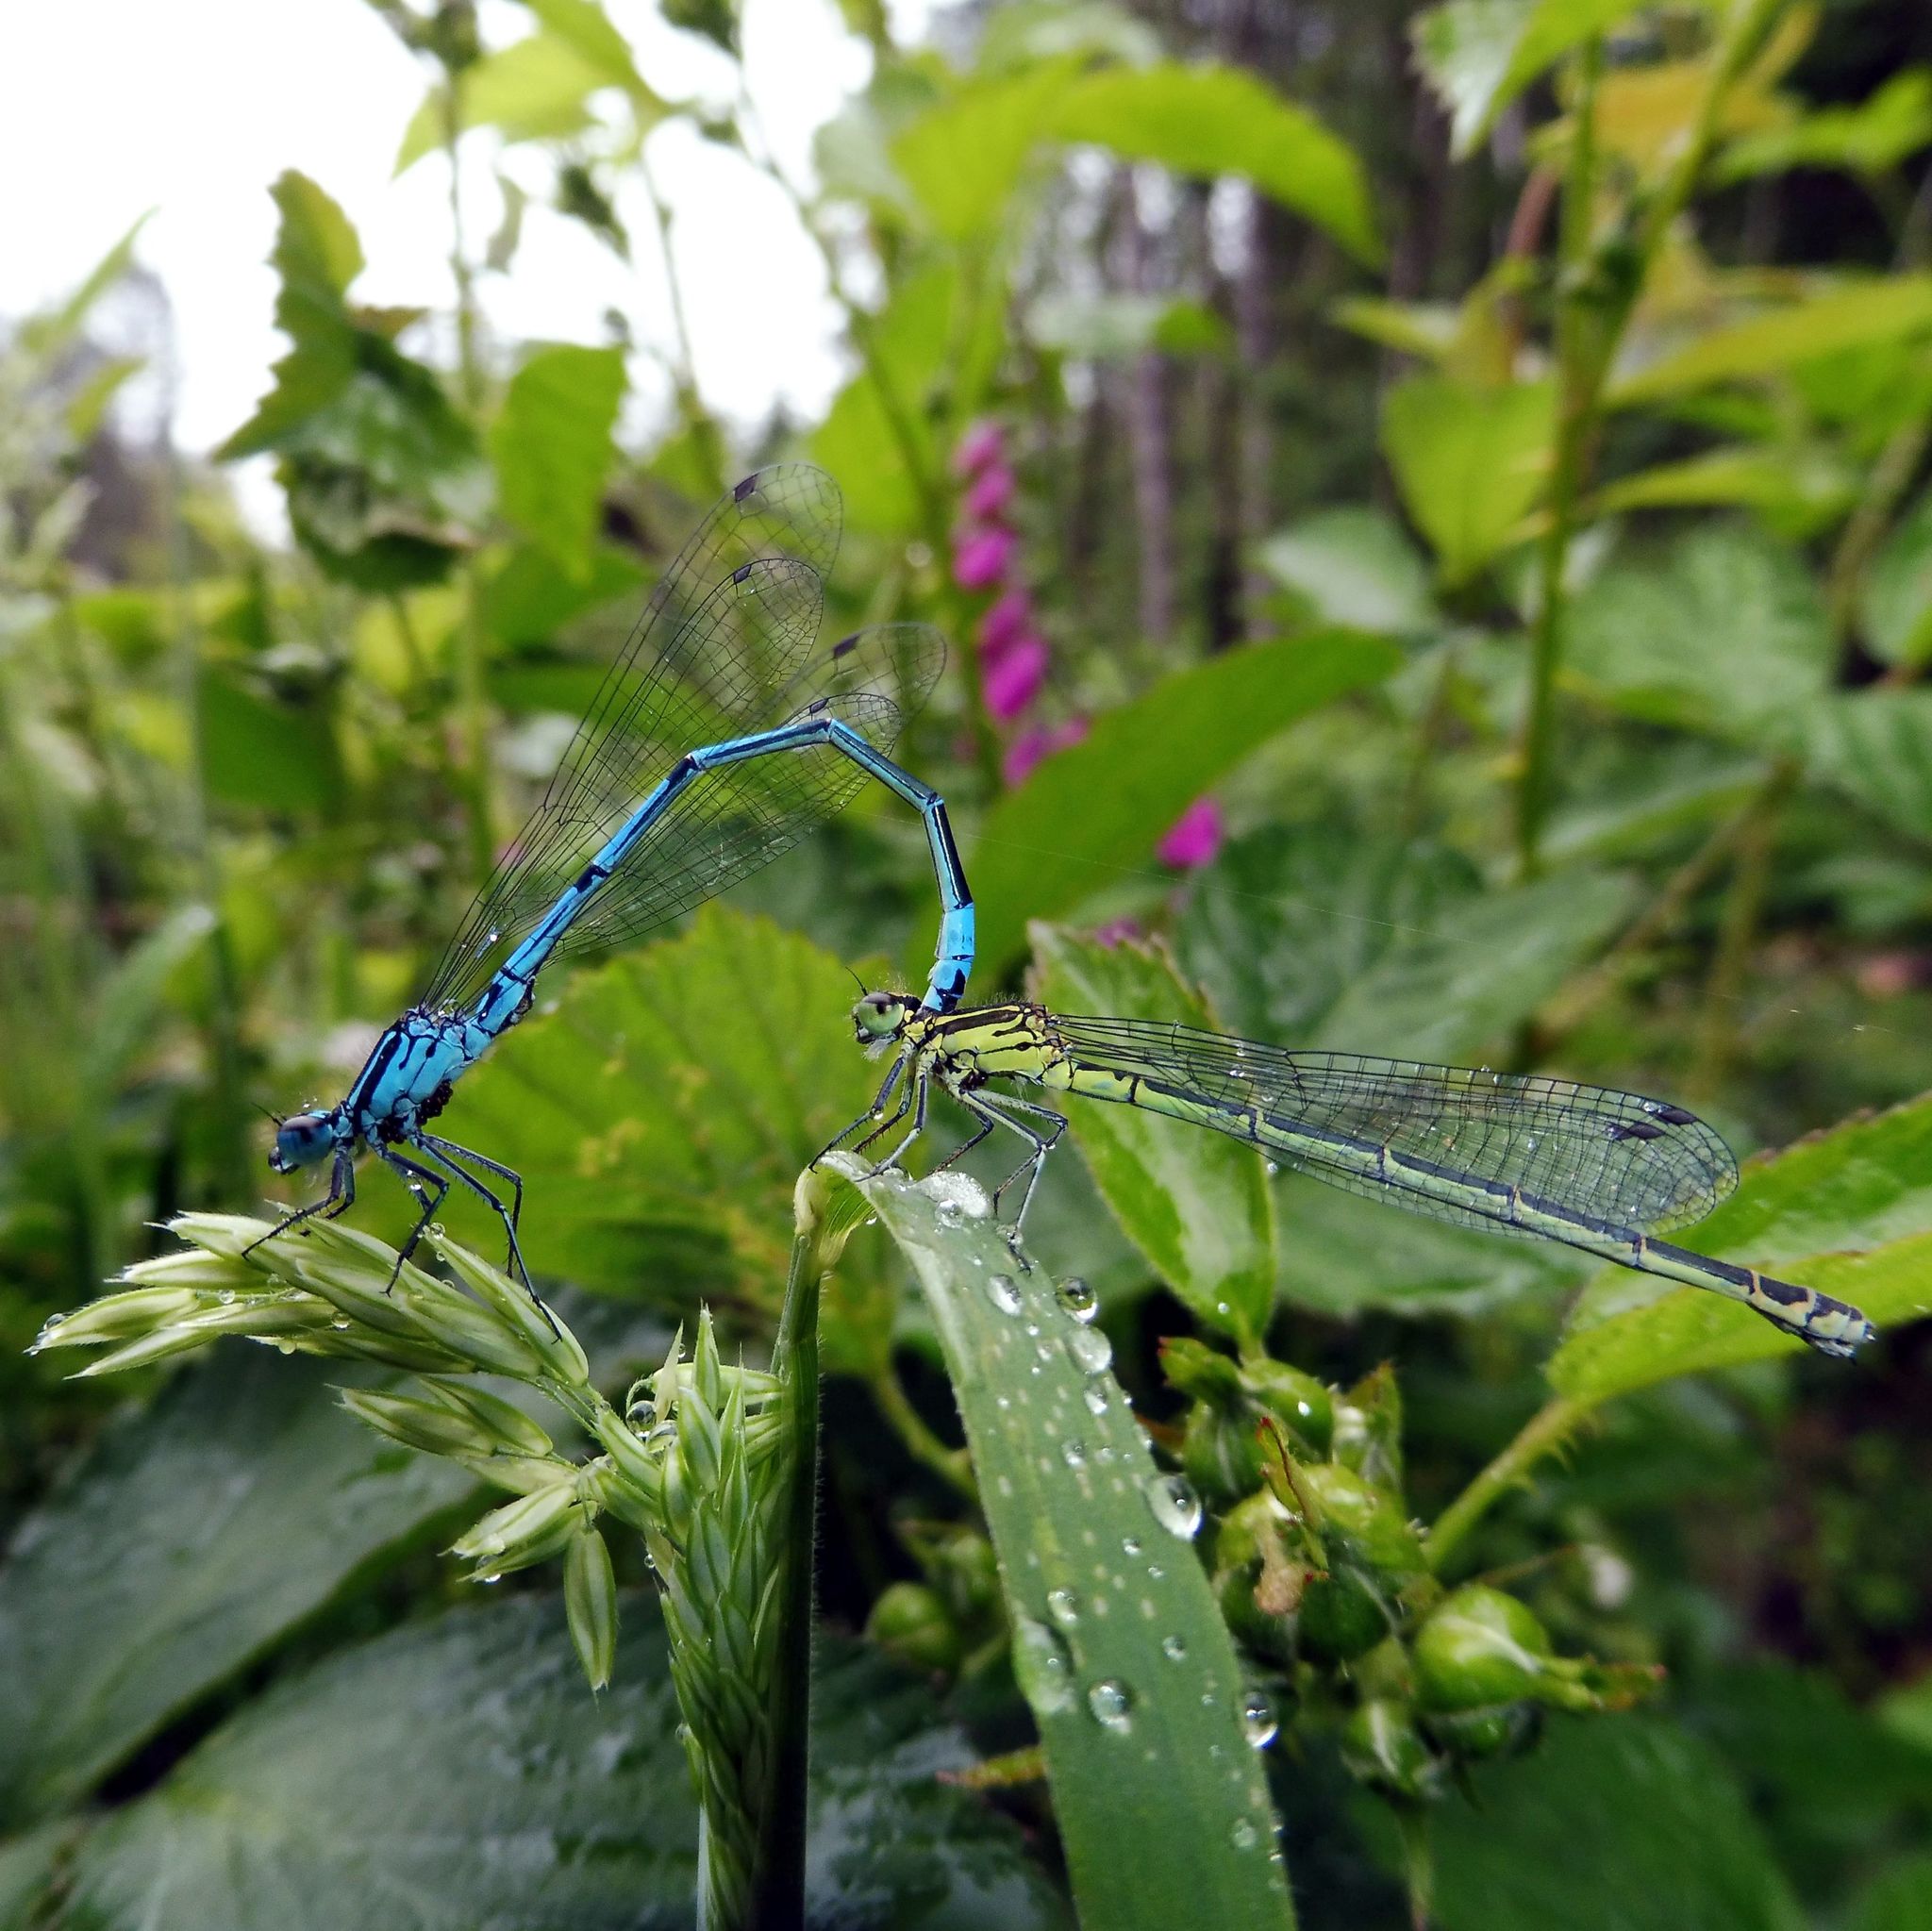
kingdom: Animalia
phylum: Arthropoda
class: Insecta
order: Odonata
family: Coenagrionidae
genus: Coenagrion
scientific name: Coenagrion puella
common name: Azure damselfly
